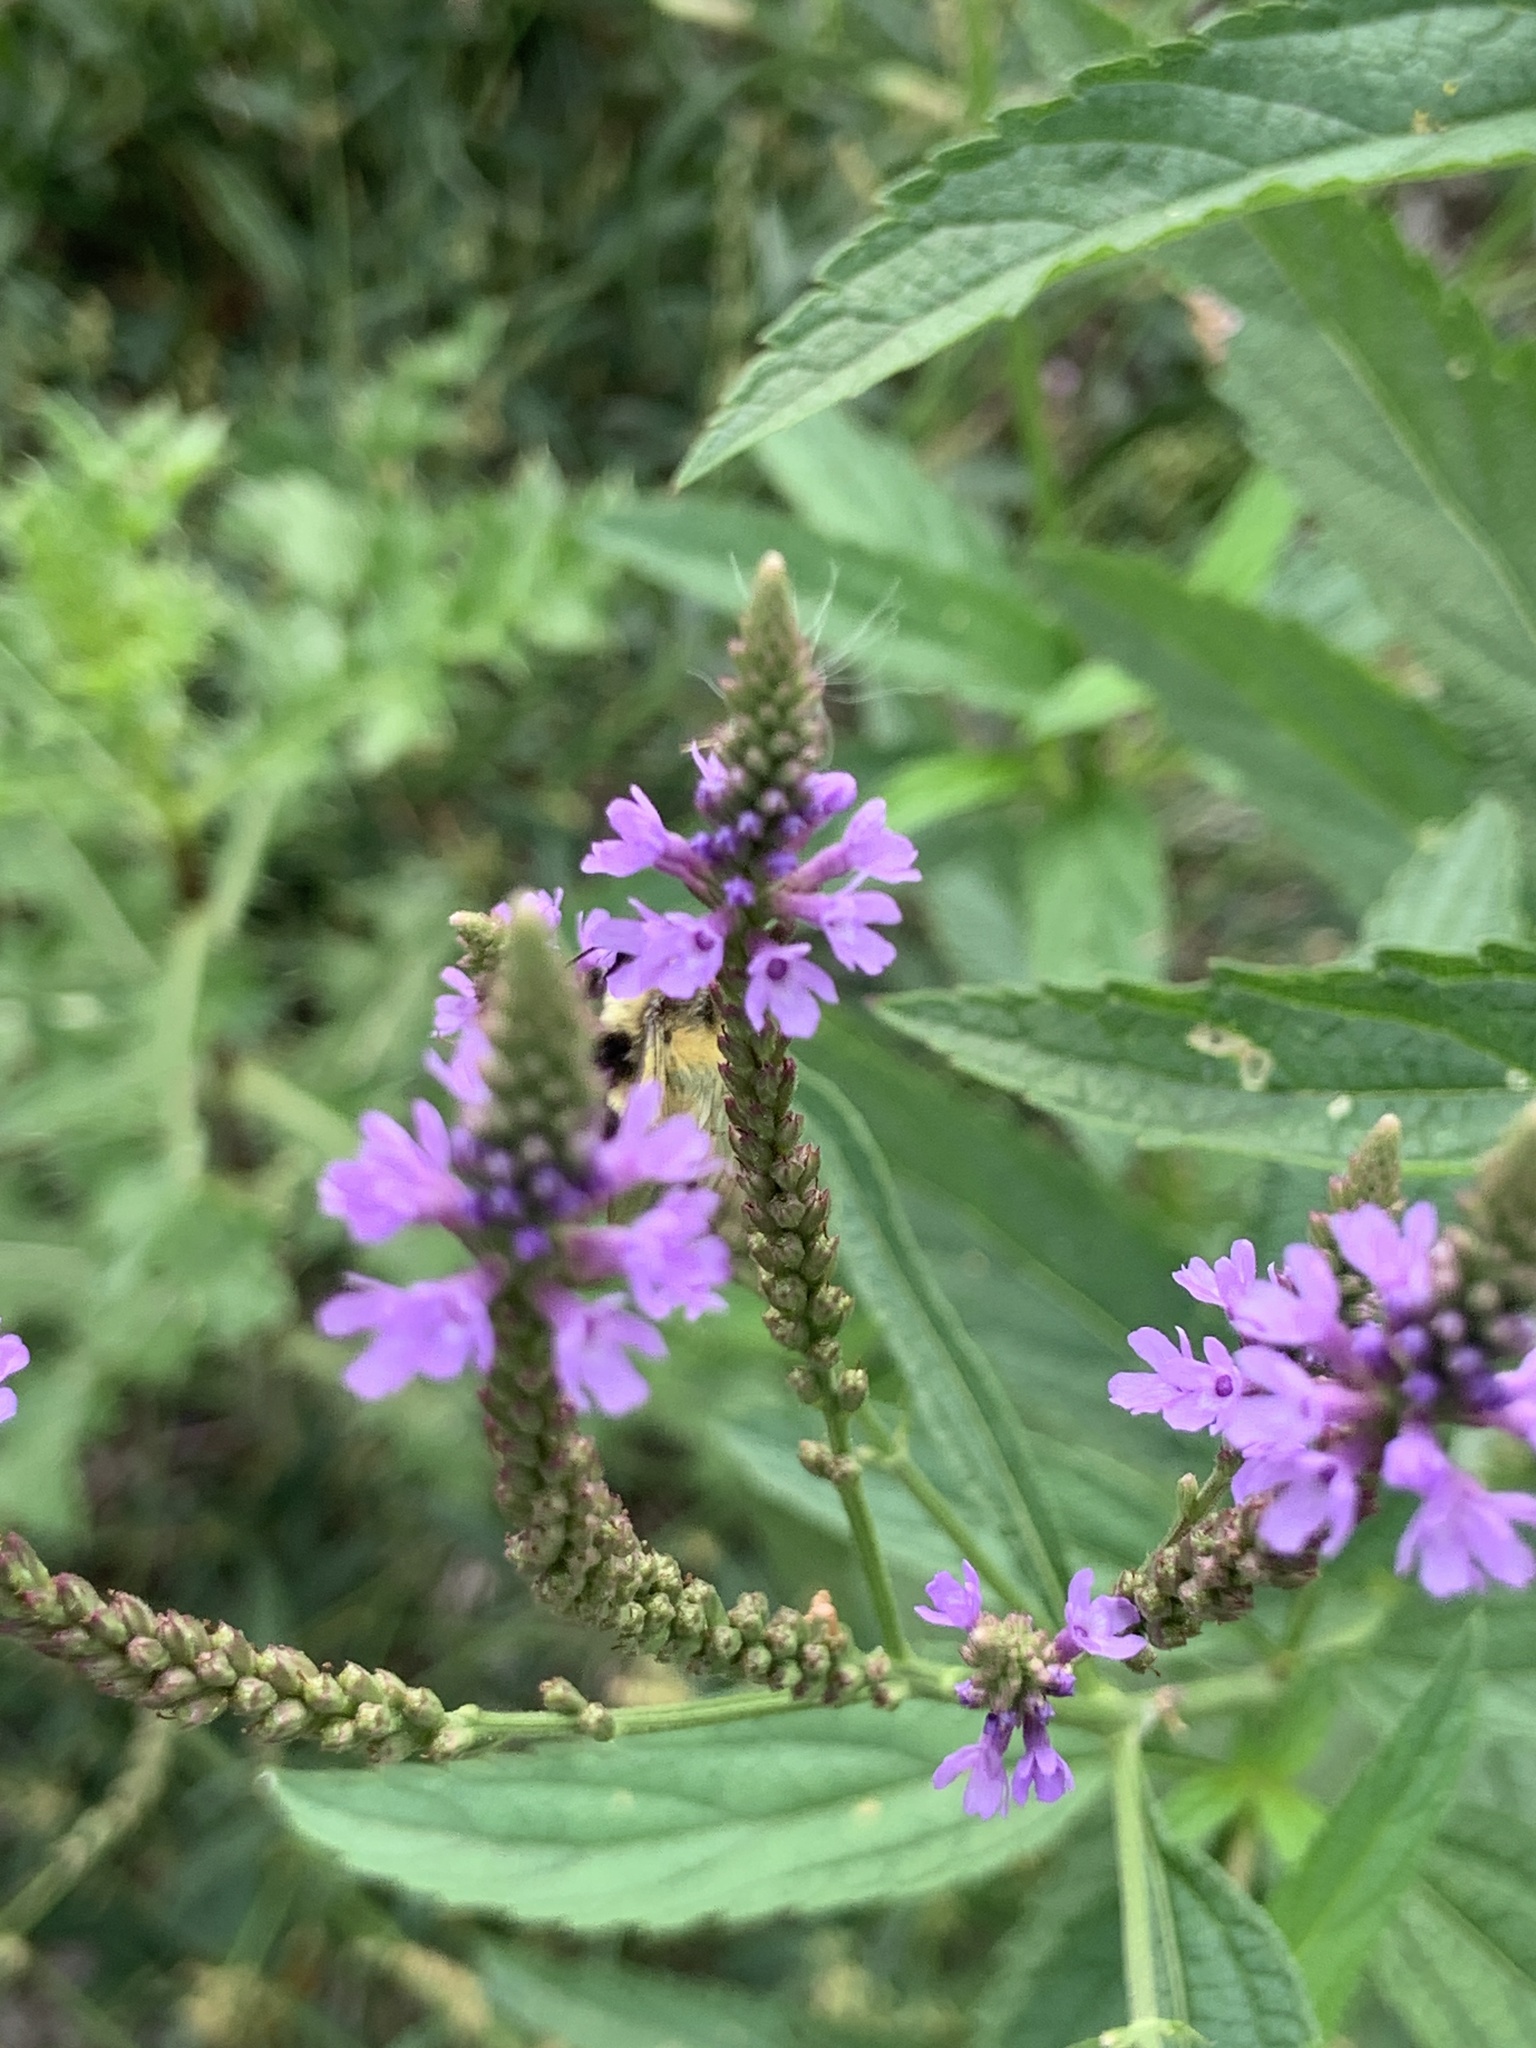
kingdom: Plantae
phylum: Tracheophyta
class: Magnoliopsida
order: Lamiales
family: Verbenaceae
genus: Verbena
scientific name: Verbena hastata
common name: American blue vervain
